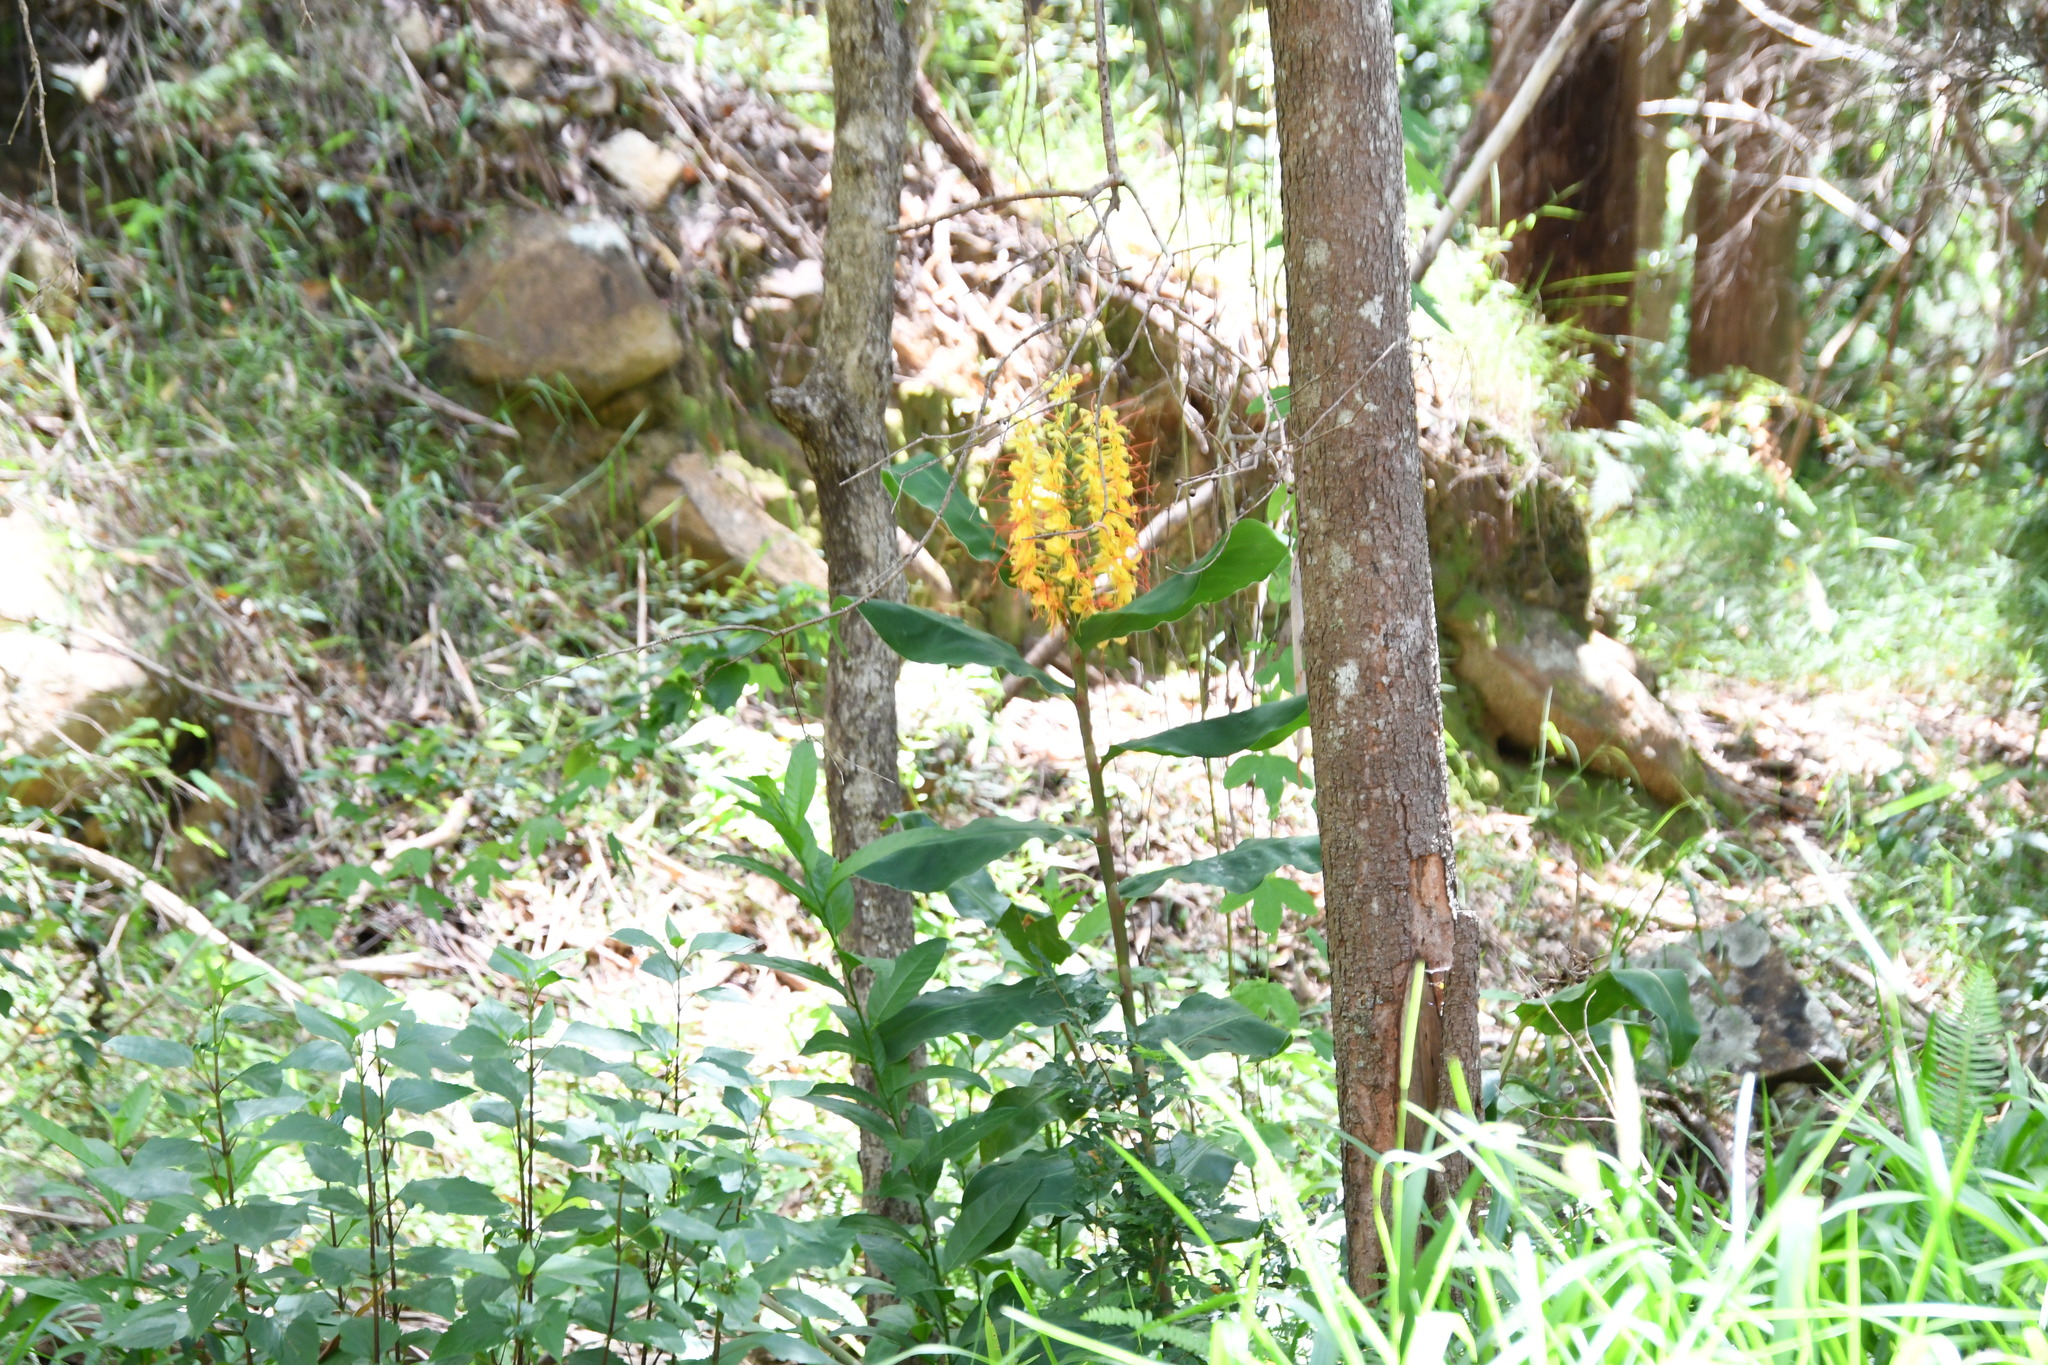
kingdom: Plantae
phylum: Tracheophyta
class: Liliopsida
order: Zingiberales
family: Zingiberaceae
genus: Hedychium
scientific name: Hedychium gardnerianum
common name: Himalayan ginger
